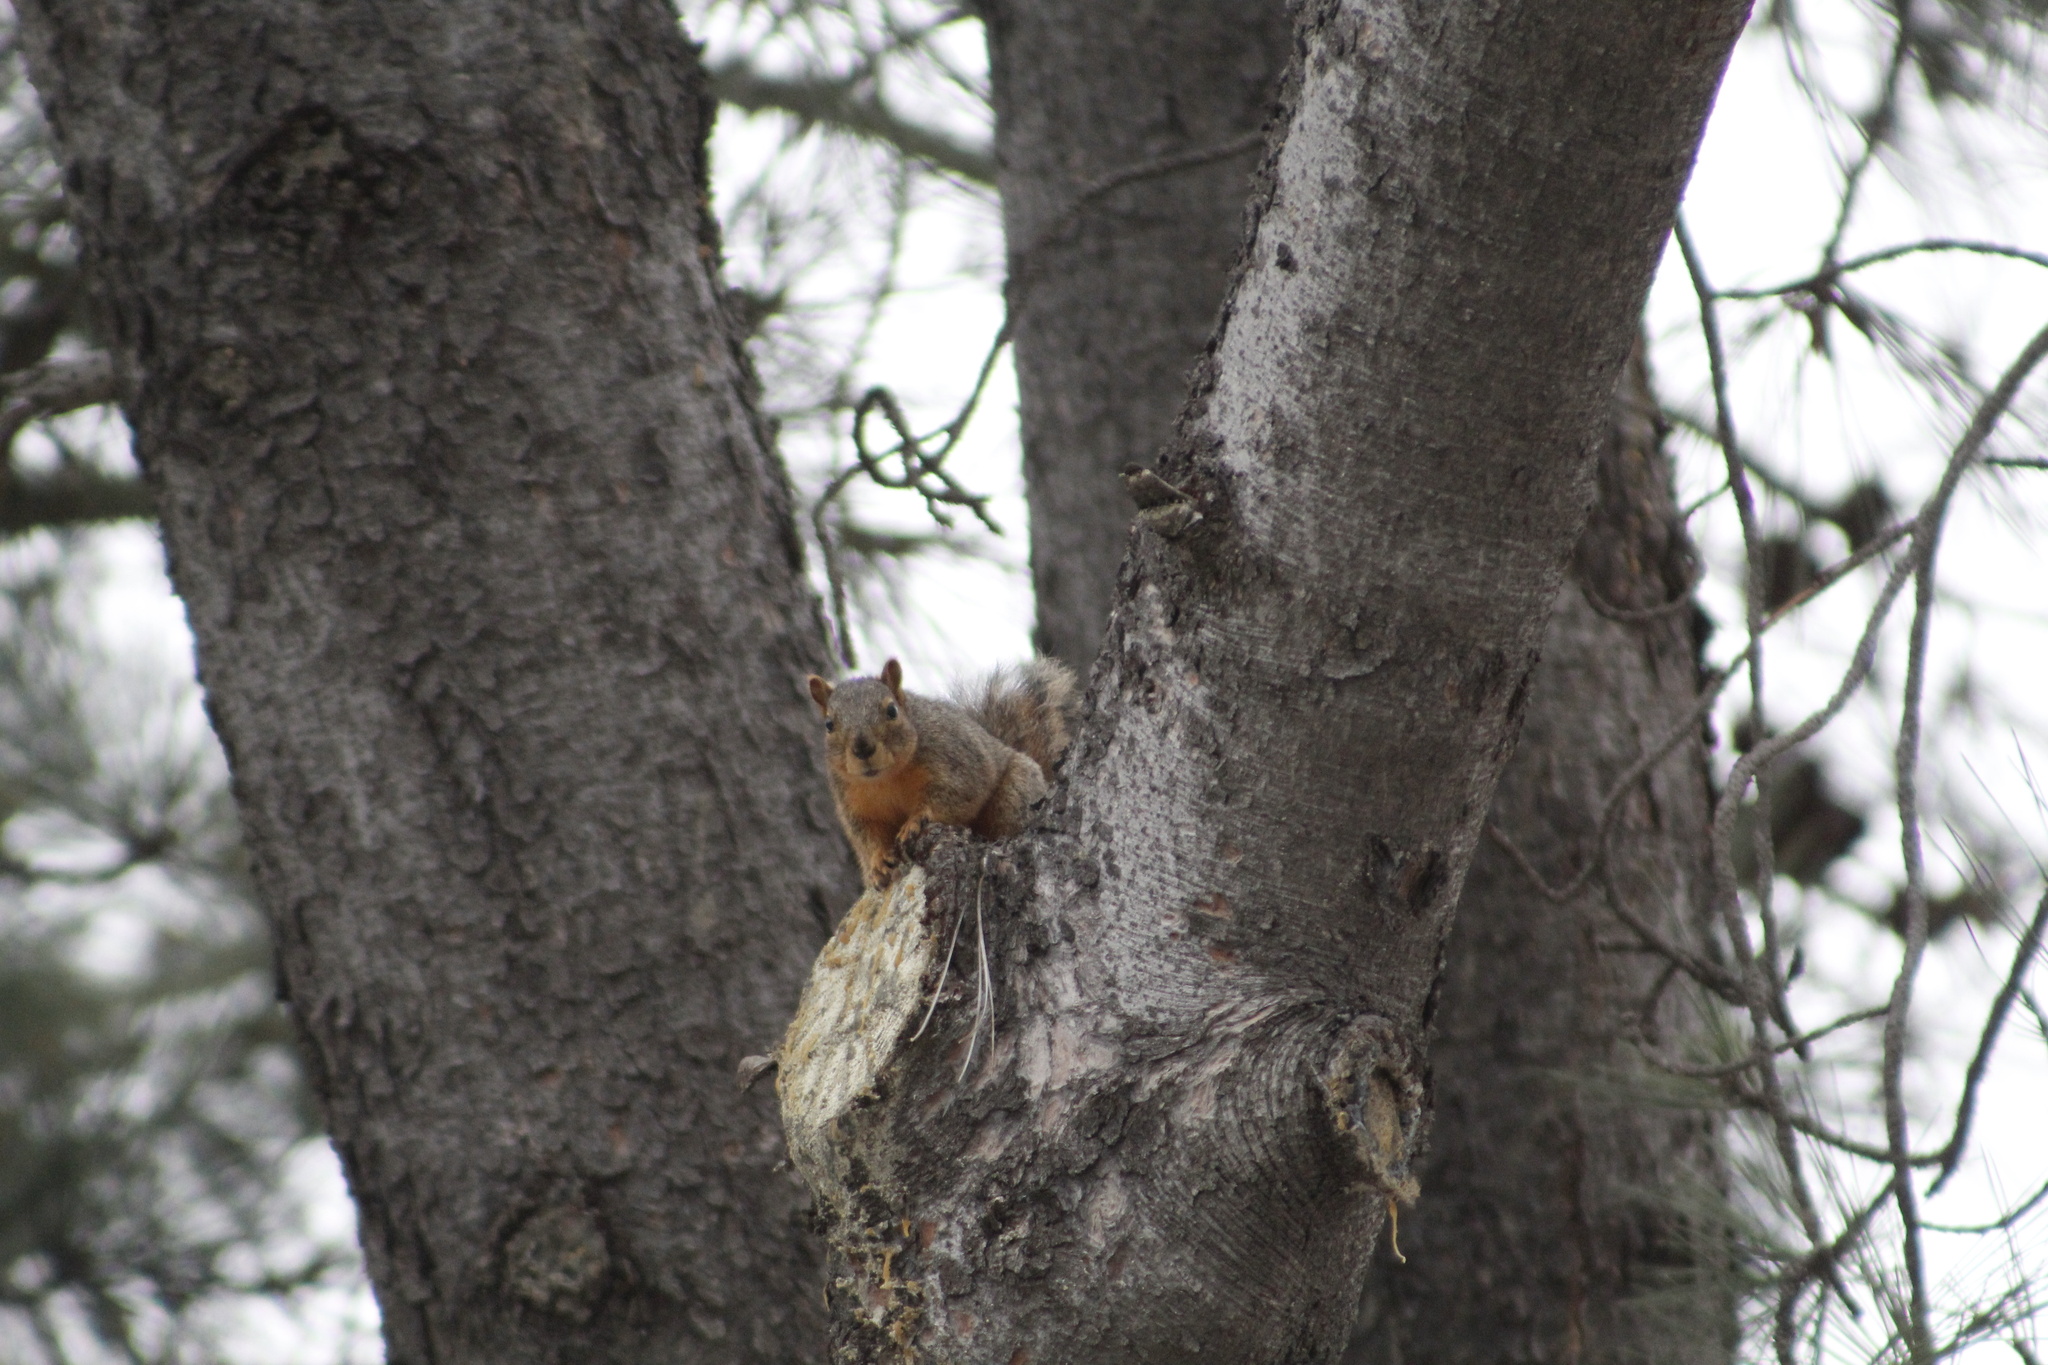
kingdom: Animalia
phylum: Chordata
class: Mammalia
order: Rodentia
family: Sciuridae
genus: Sciurus
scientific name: Sciurus niger
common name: Fox squirrel
